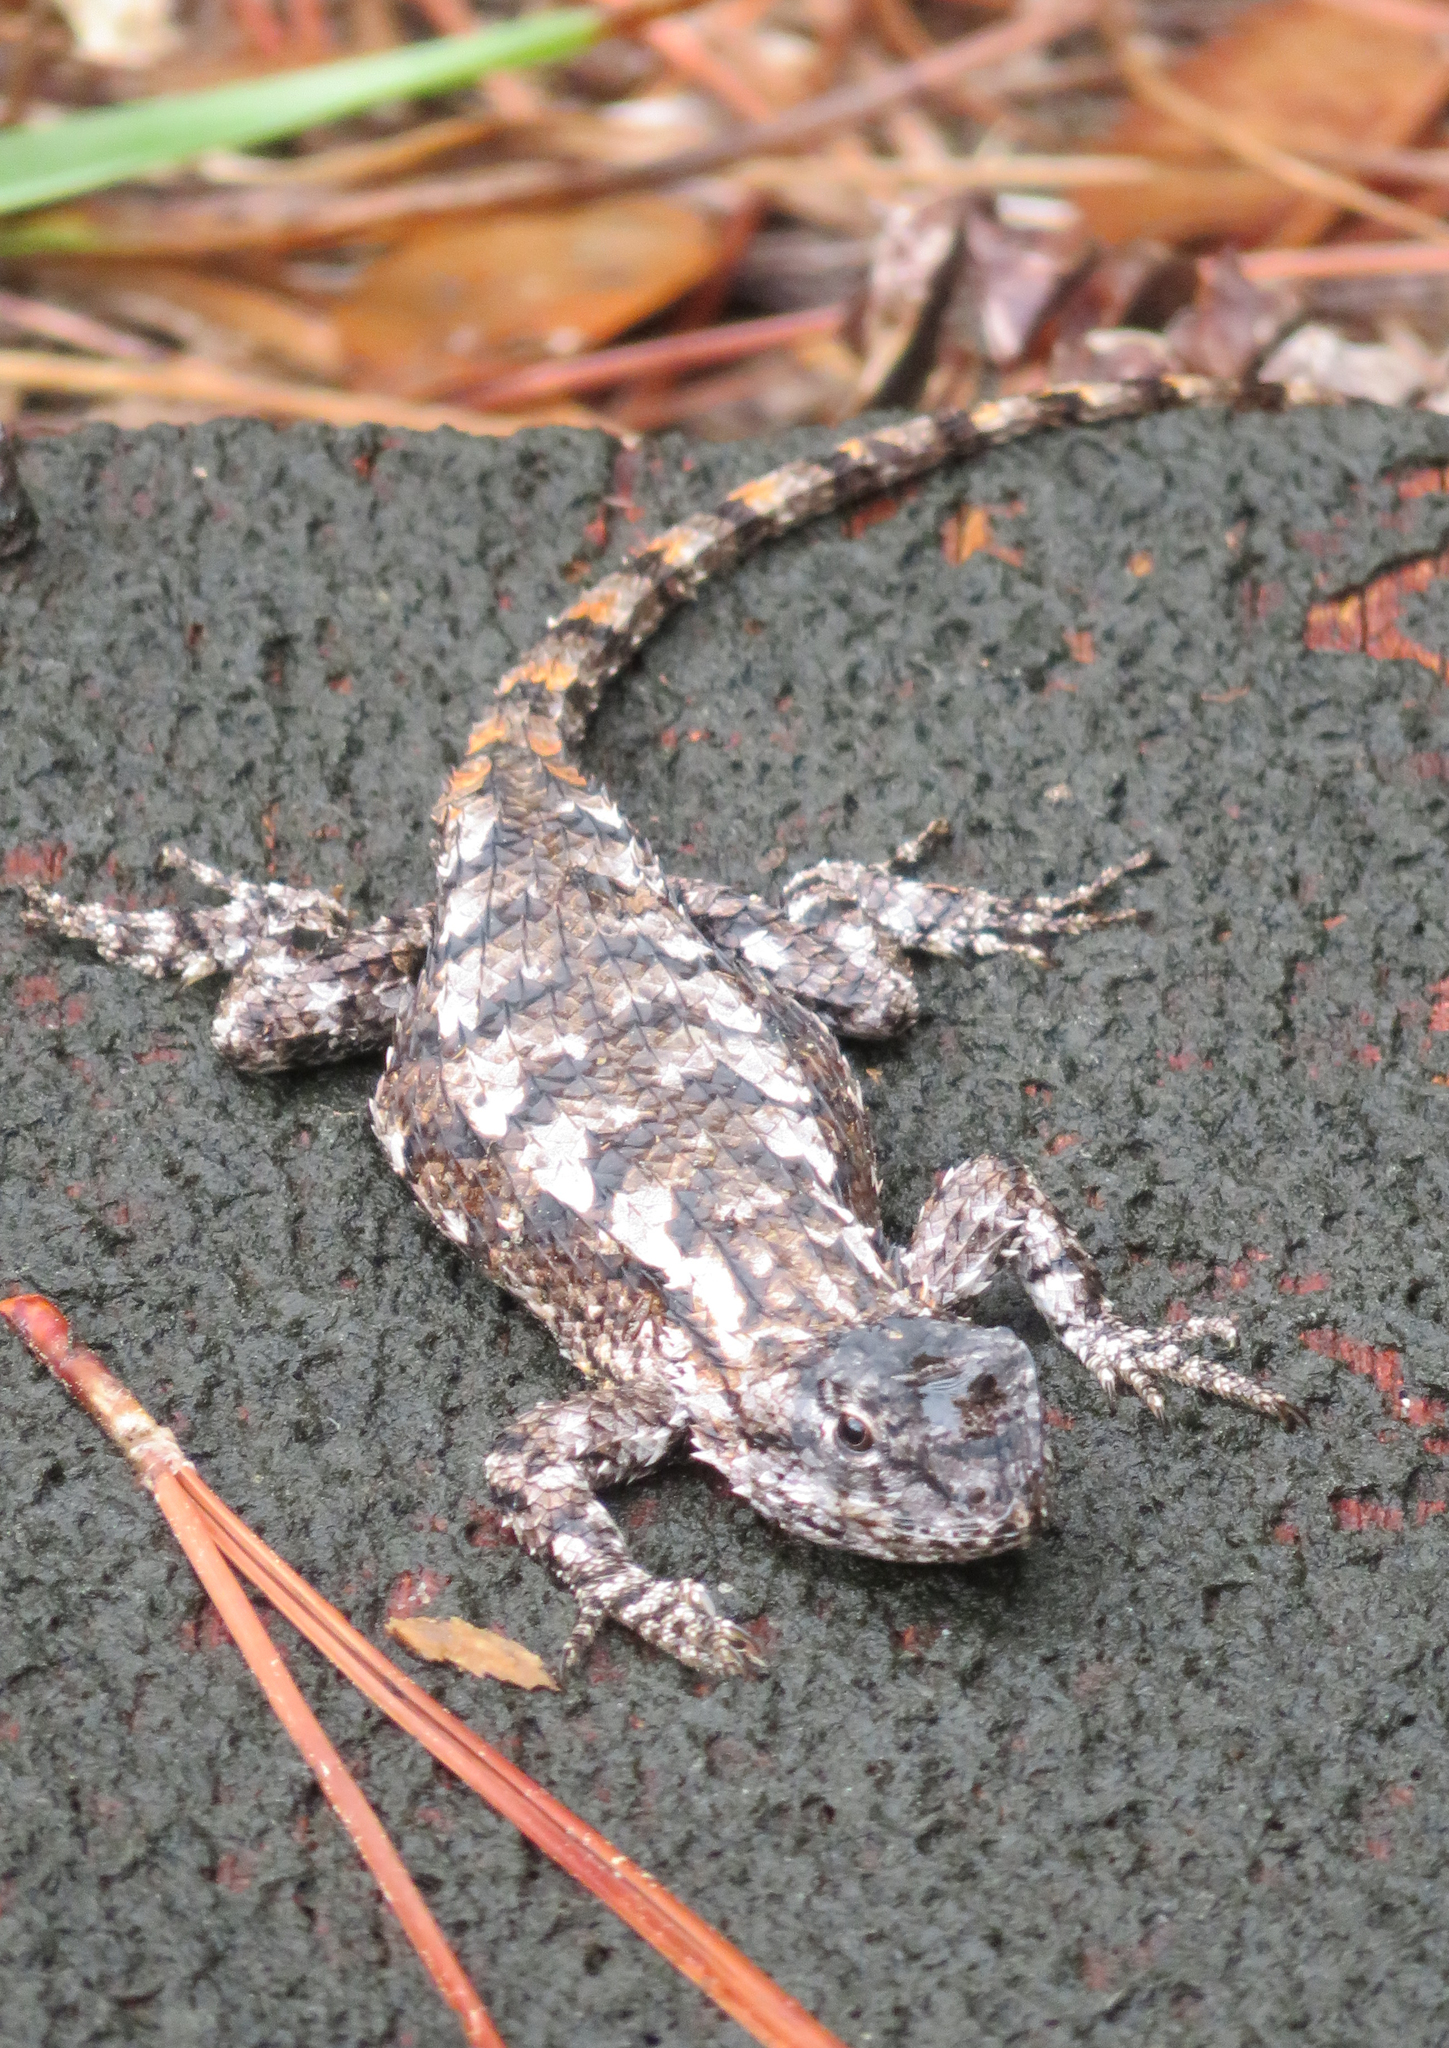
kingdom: Animalia
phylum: Chordata
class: Squamata
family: Phrynosomatidae
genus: Sceloporus
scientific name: Sceloporus undulatus
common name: Eastern fence lizard
